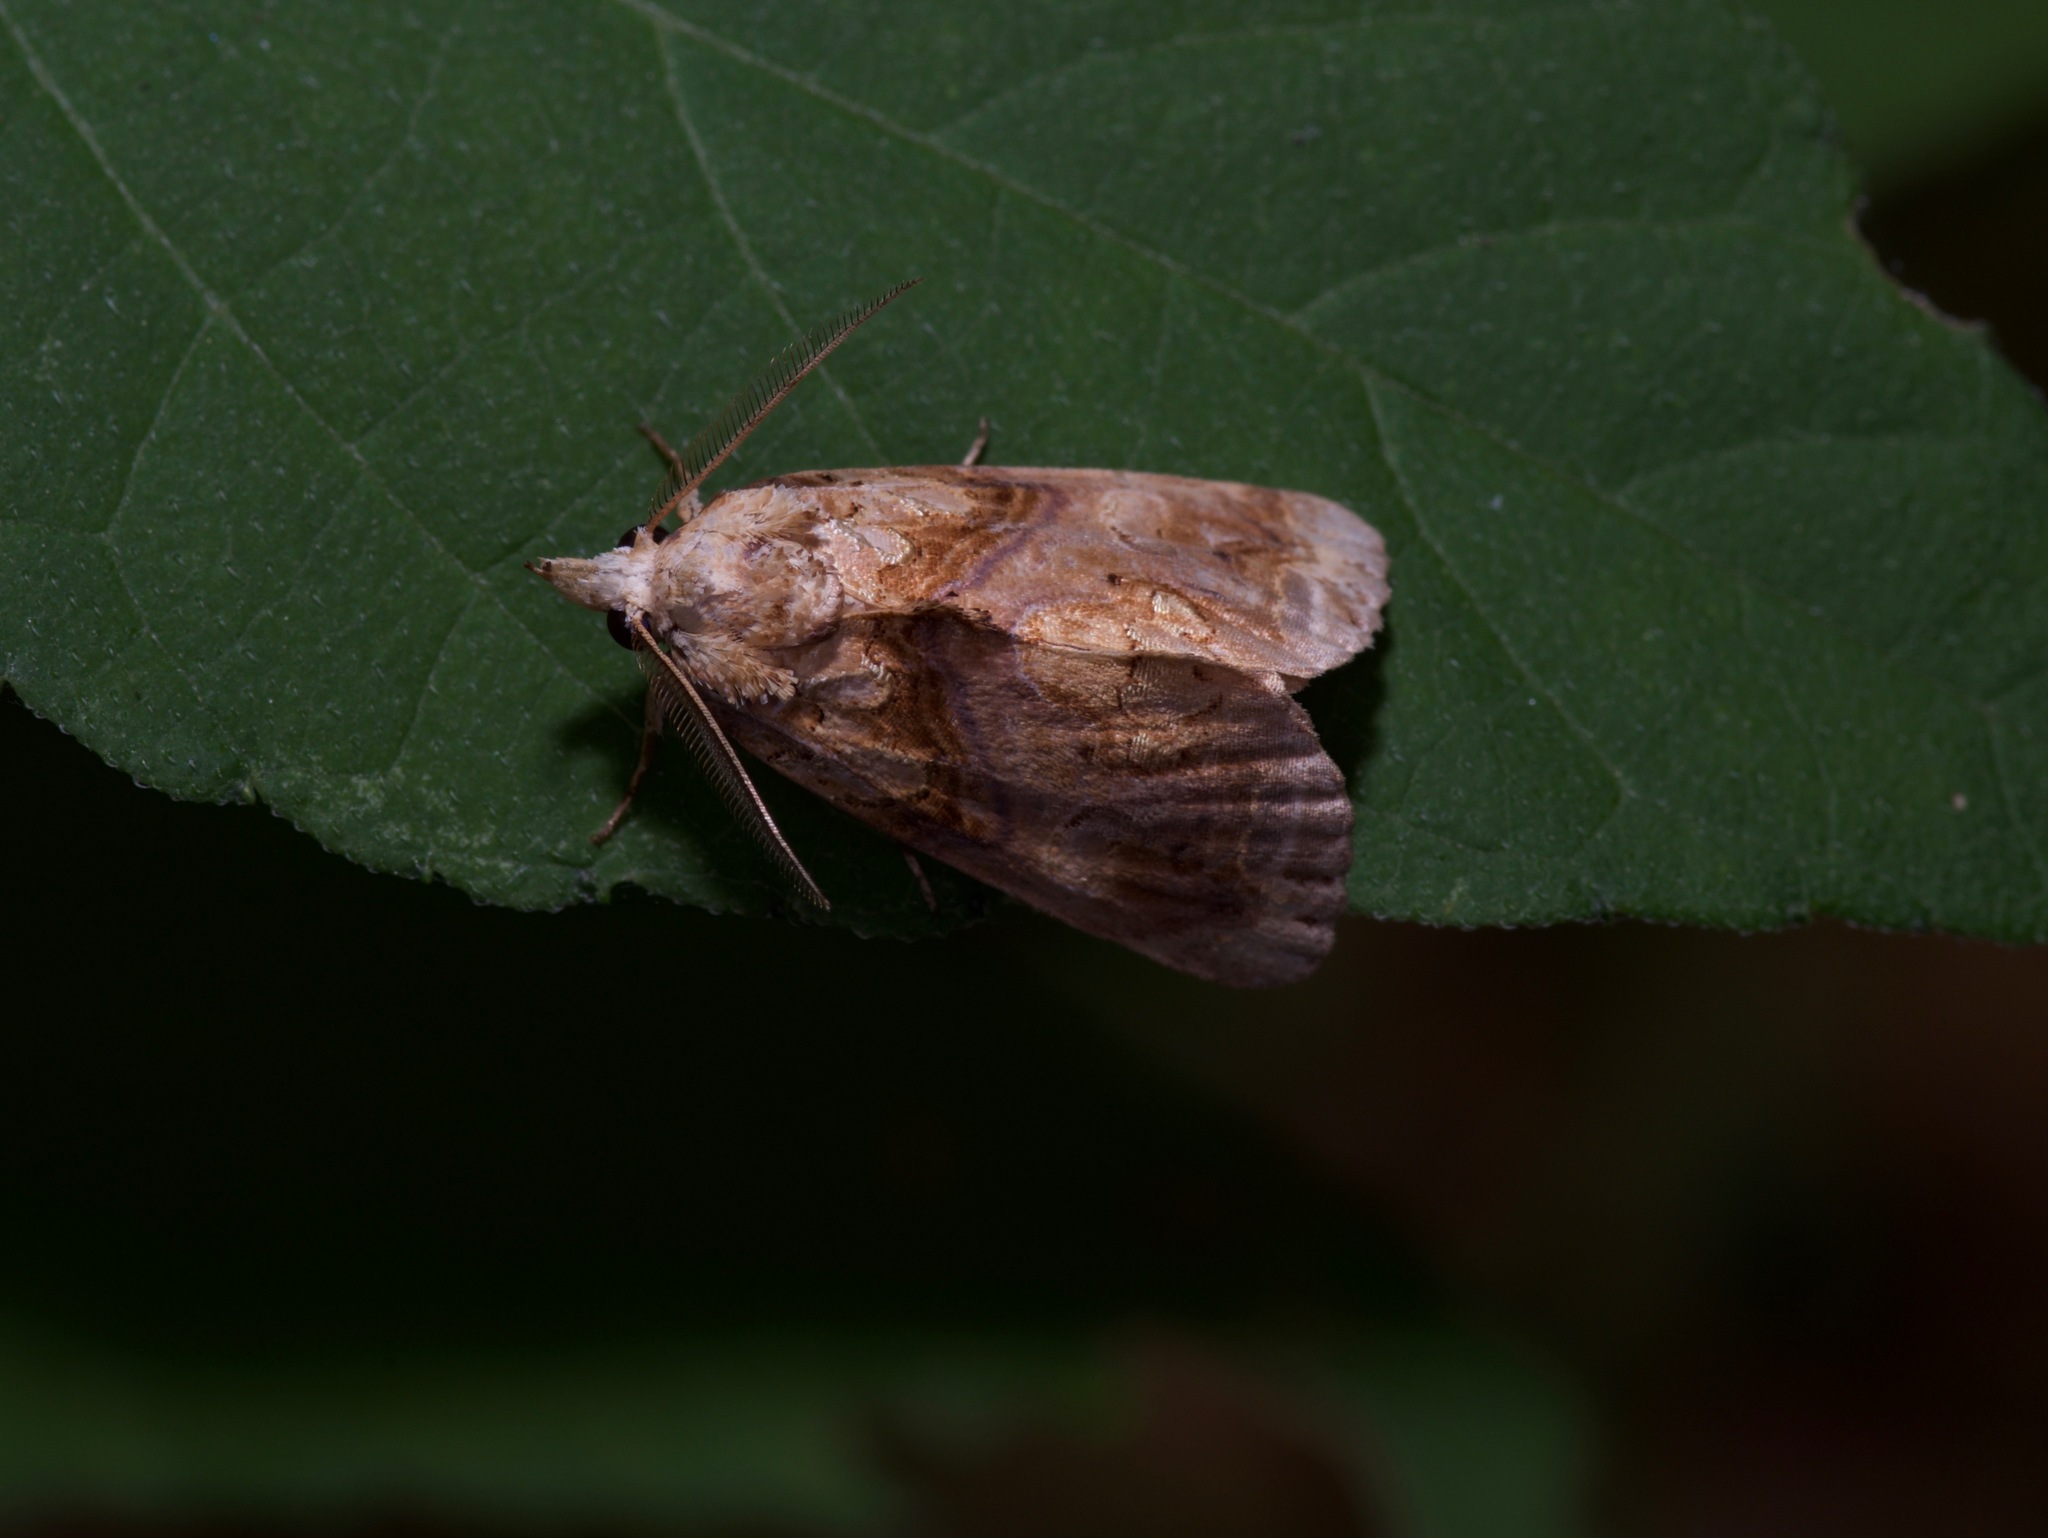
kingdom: Animalia
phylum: Arthropoda
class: Insecta
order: Lepidoptera
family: Erebidae
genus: Plusiodonta
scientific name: Plusiodonta compressipalpis
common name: Moonseed moth
